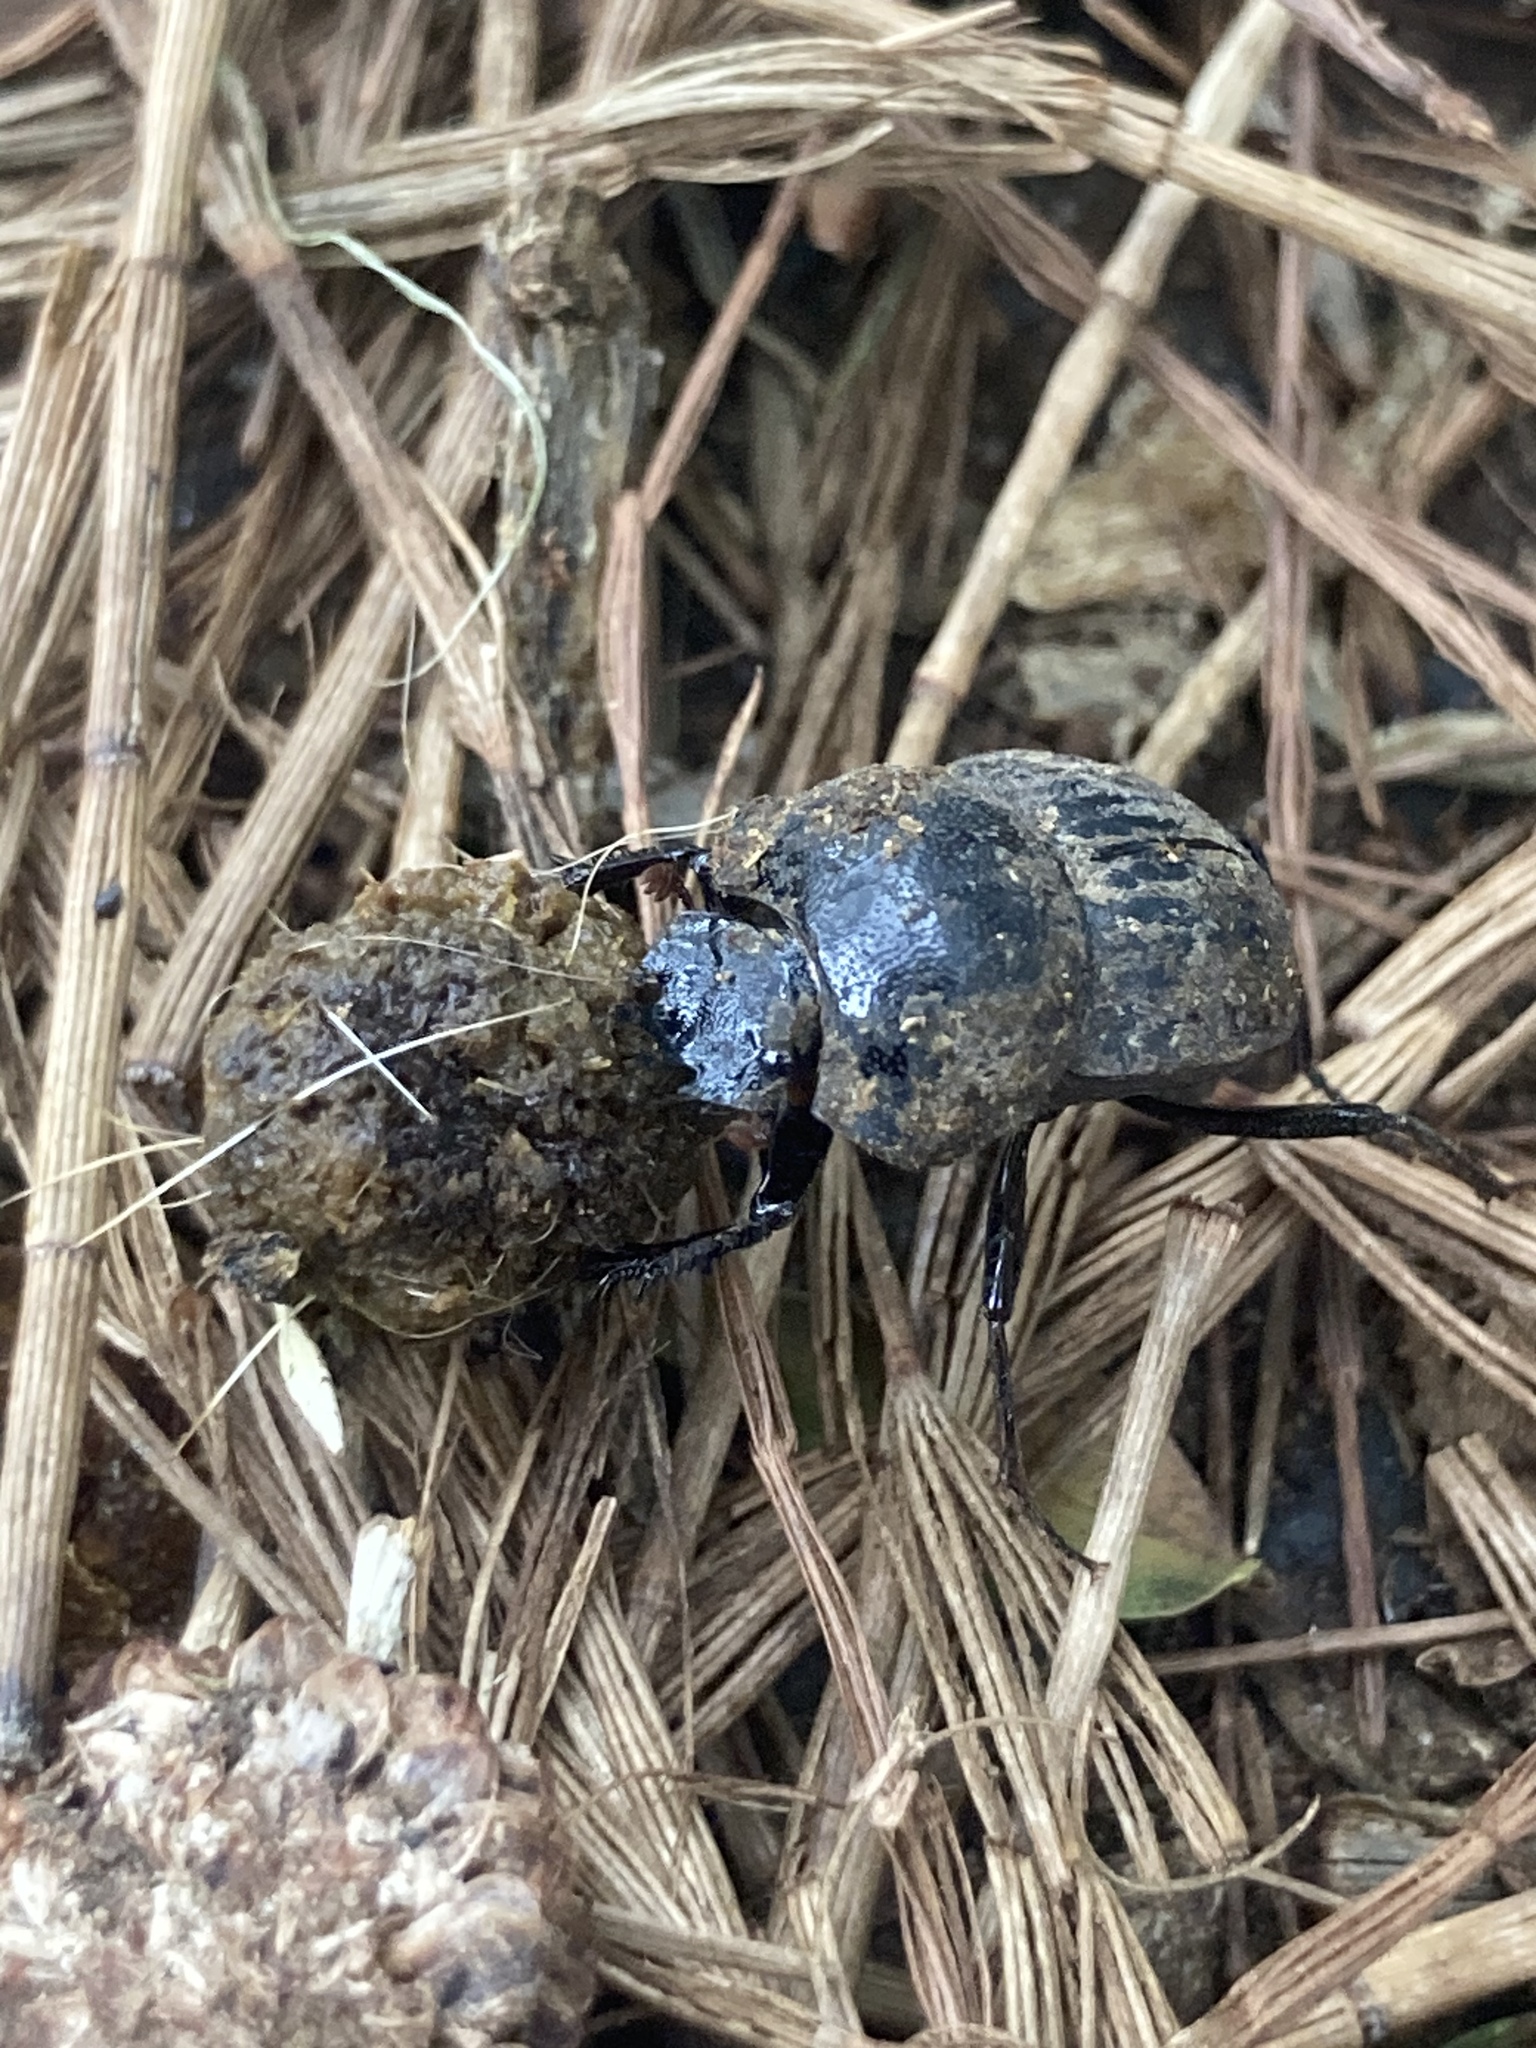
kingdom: Animalia
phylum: Arthropoda
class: Insecta
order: Coleoptera
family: Scarabaeidae
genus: Cephalodesmius
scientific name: Cephalodesmius armiger
